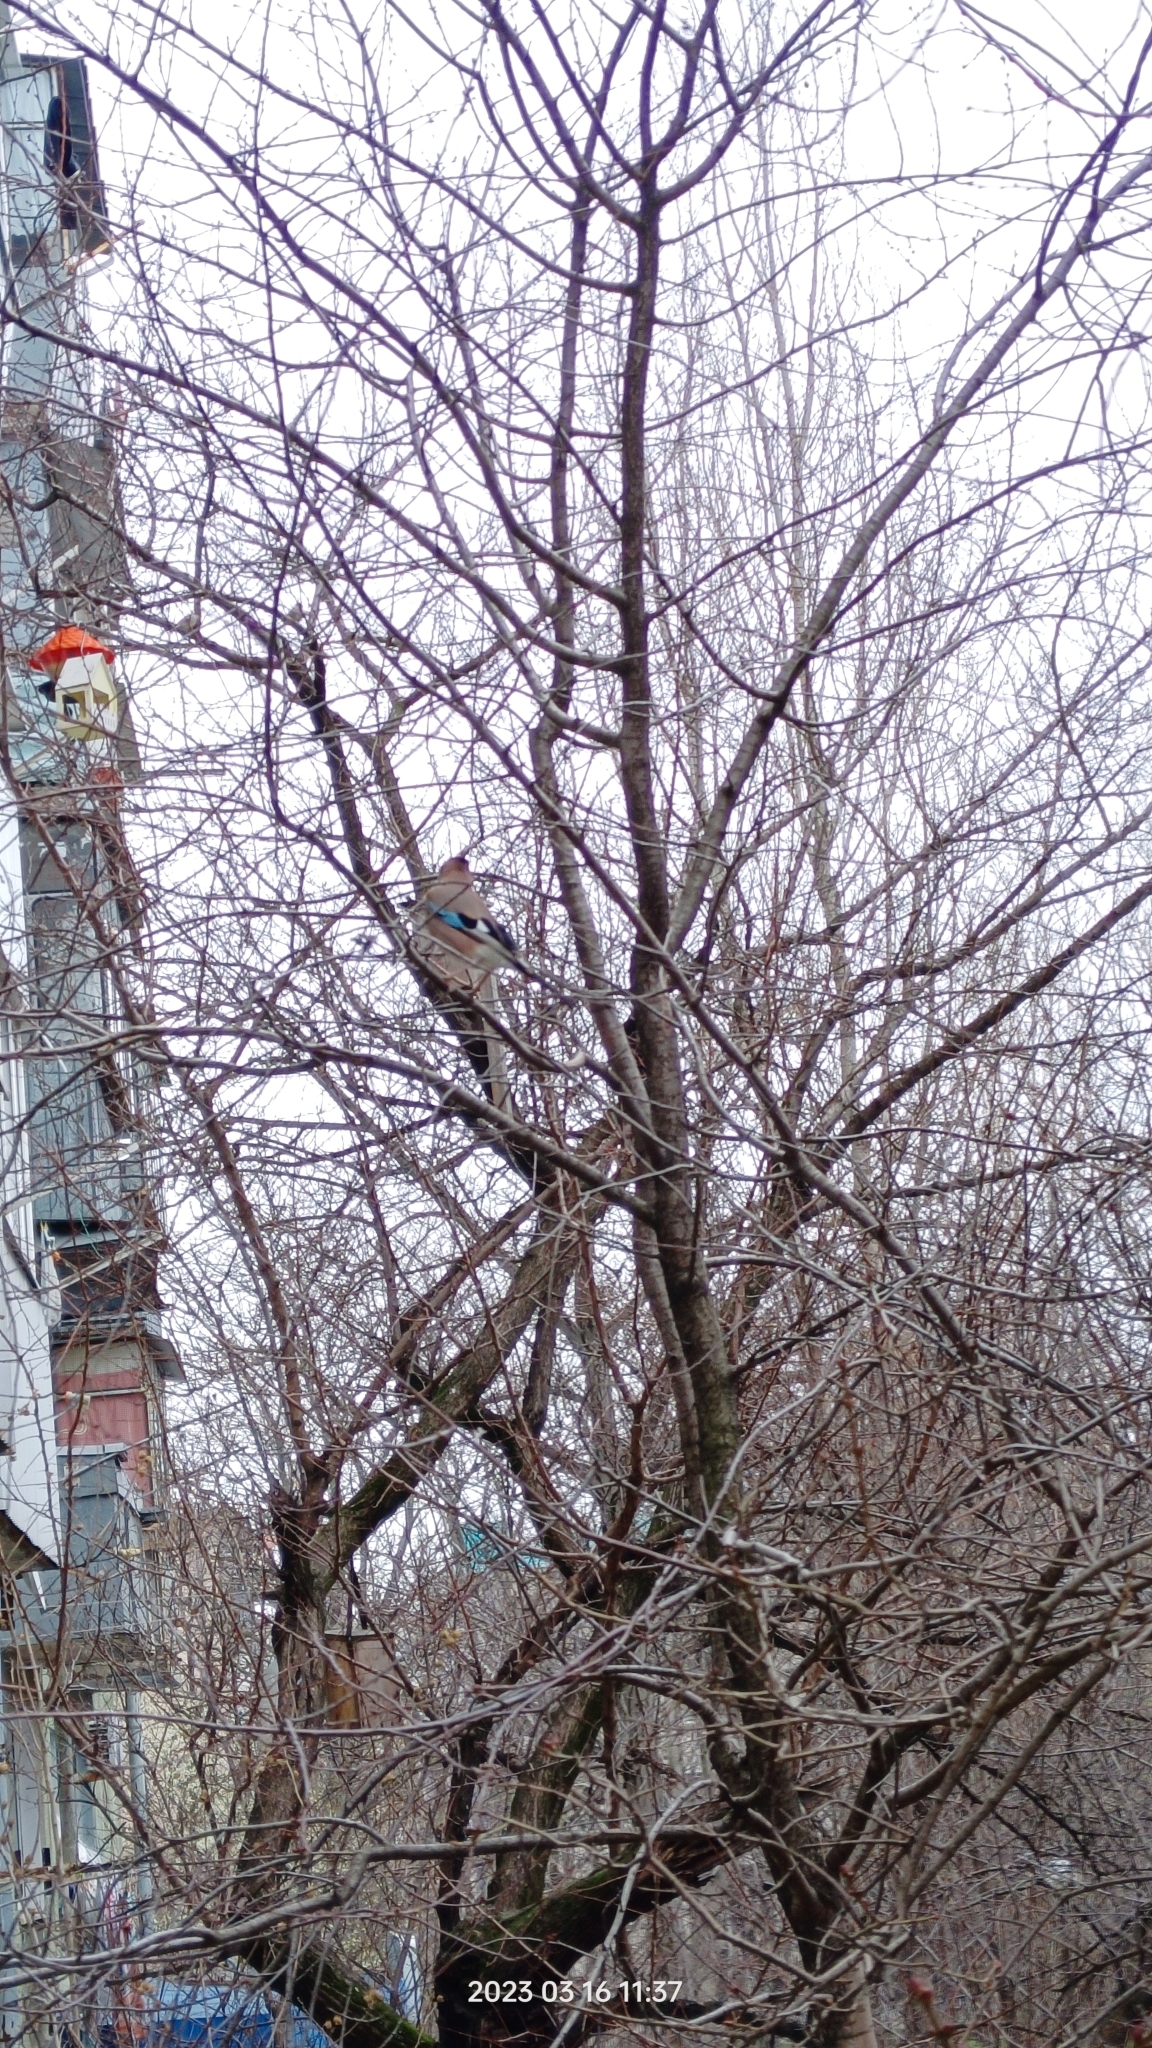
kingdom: Animalia
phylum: Chordata
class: Aves
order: Passeriformes
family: Corvidae
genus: Garrulus
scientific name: Garrulus glandarius
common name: Eurasian jay
